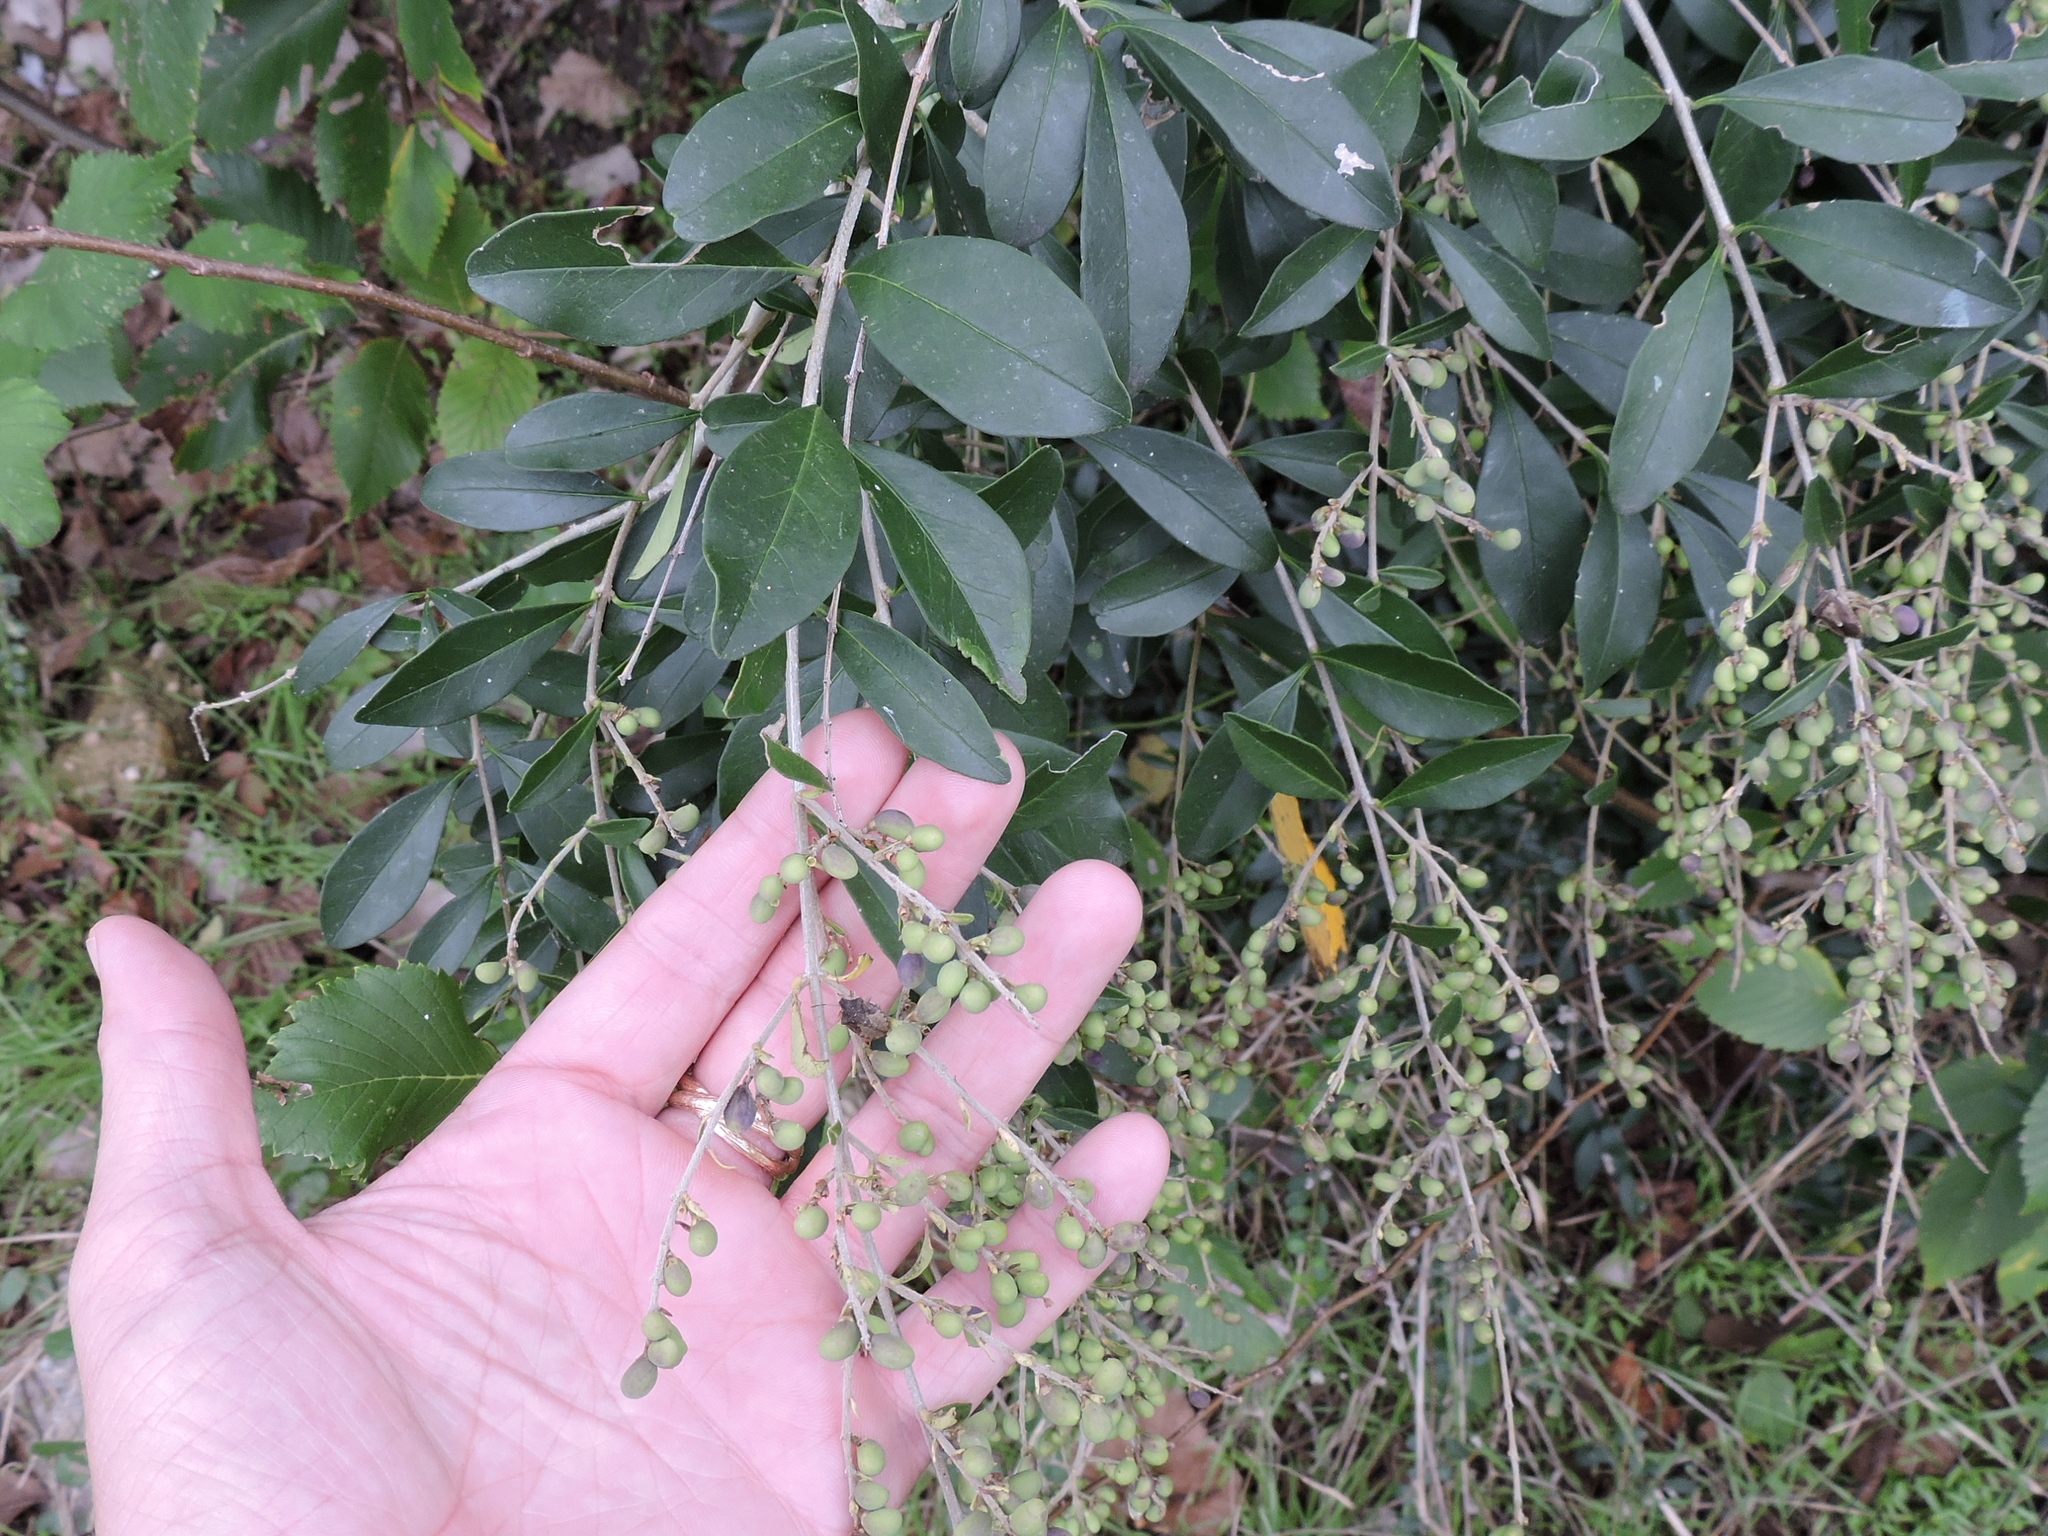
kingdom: Plantae
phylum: Tracheophyta
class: Magnoliopsida
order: Lamiales
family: Oleaceae
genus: Ligustrum
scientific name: Ligustrum quihoui
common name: Waxyleaf privet
